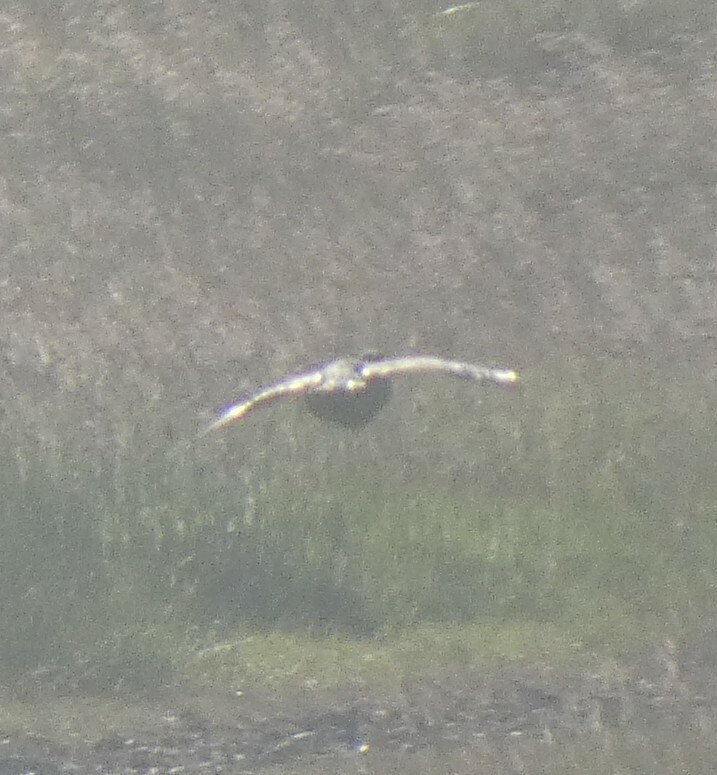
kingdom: Animalia
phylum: Chordata
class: Aves
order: Galliformes
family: Phasianidae
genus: Perdix
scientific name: Perdix perdix
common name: Grey partridge
